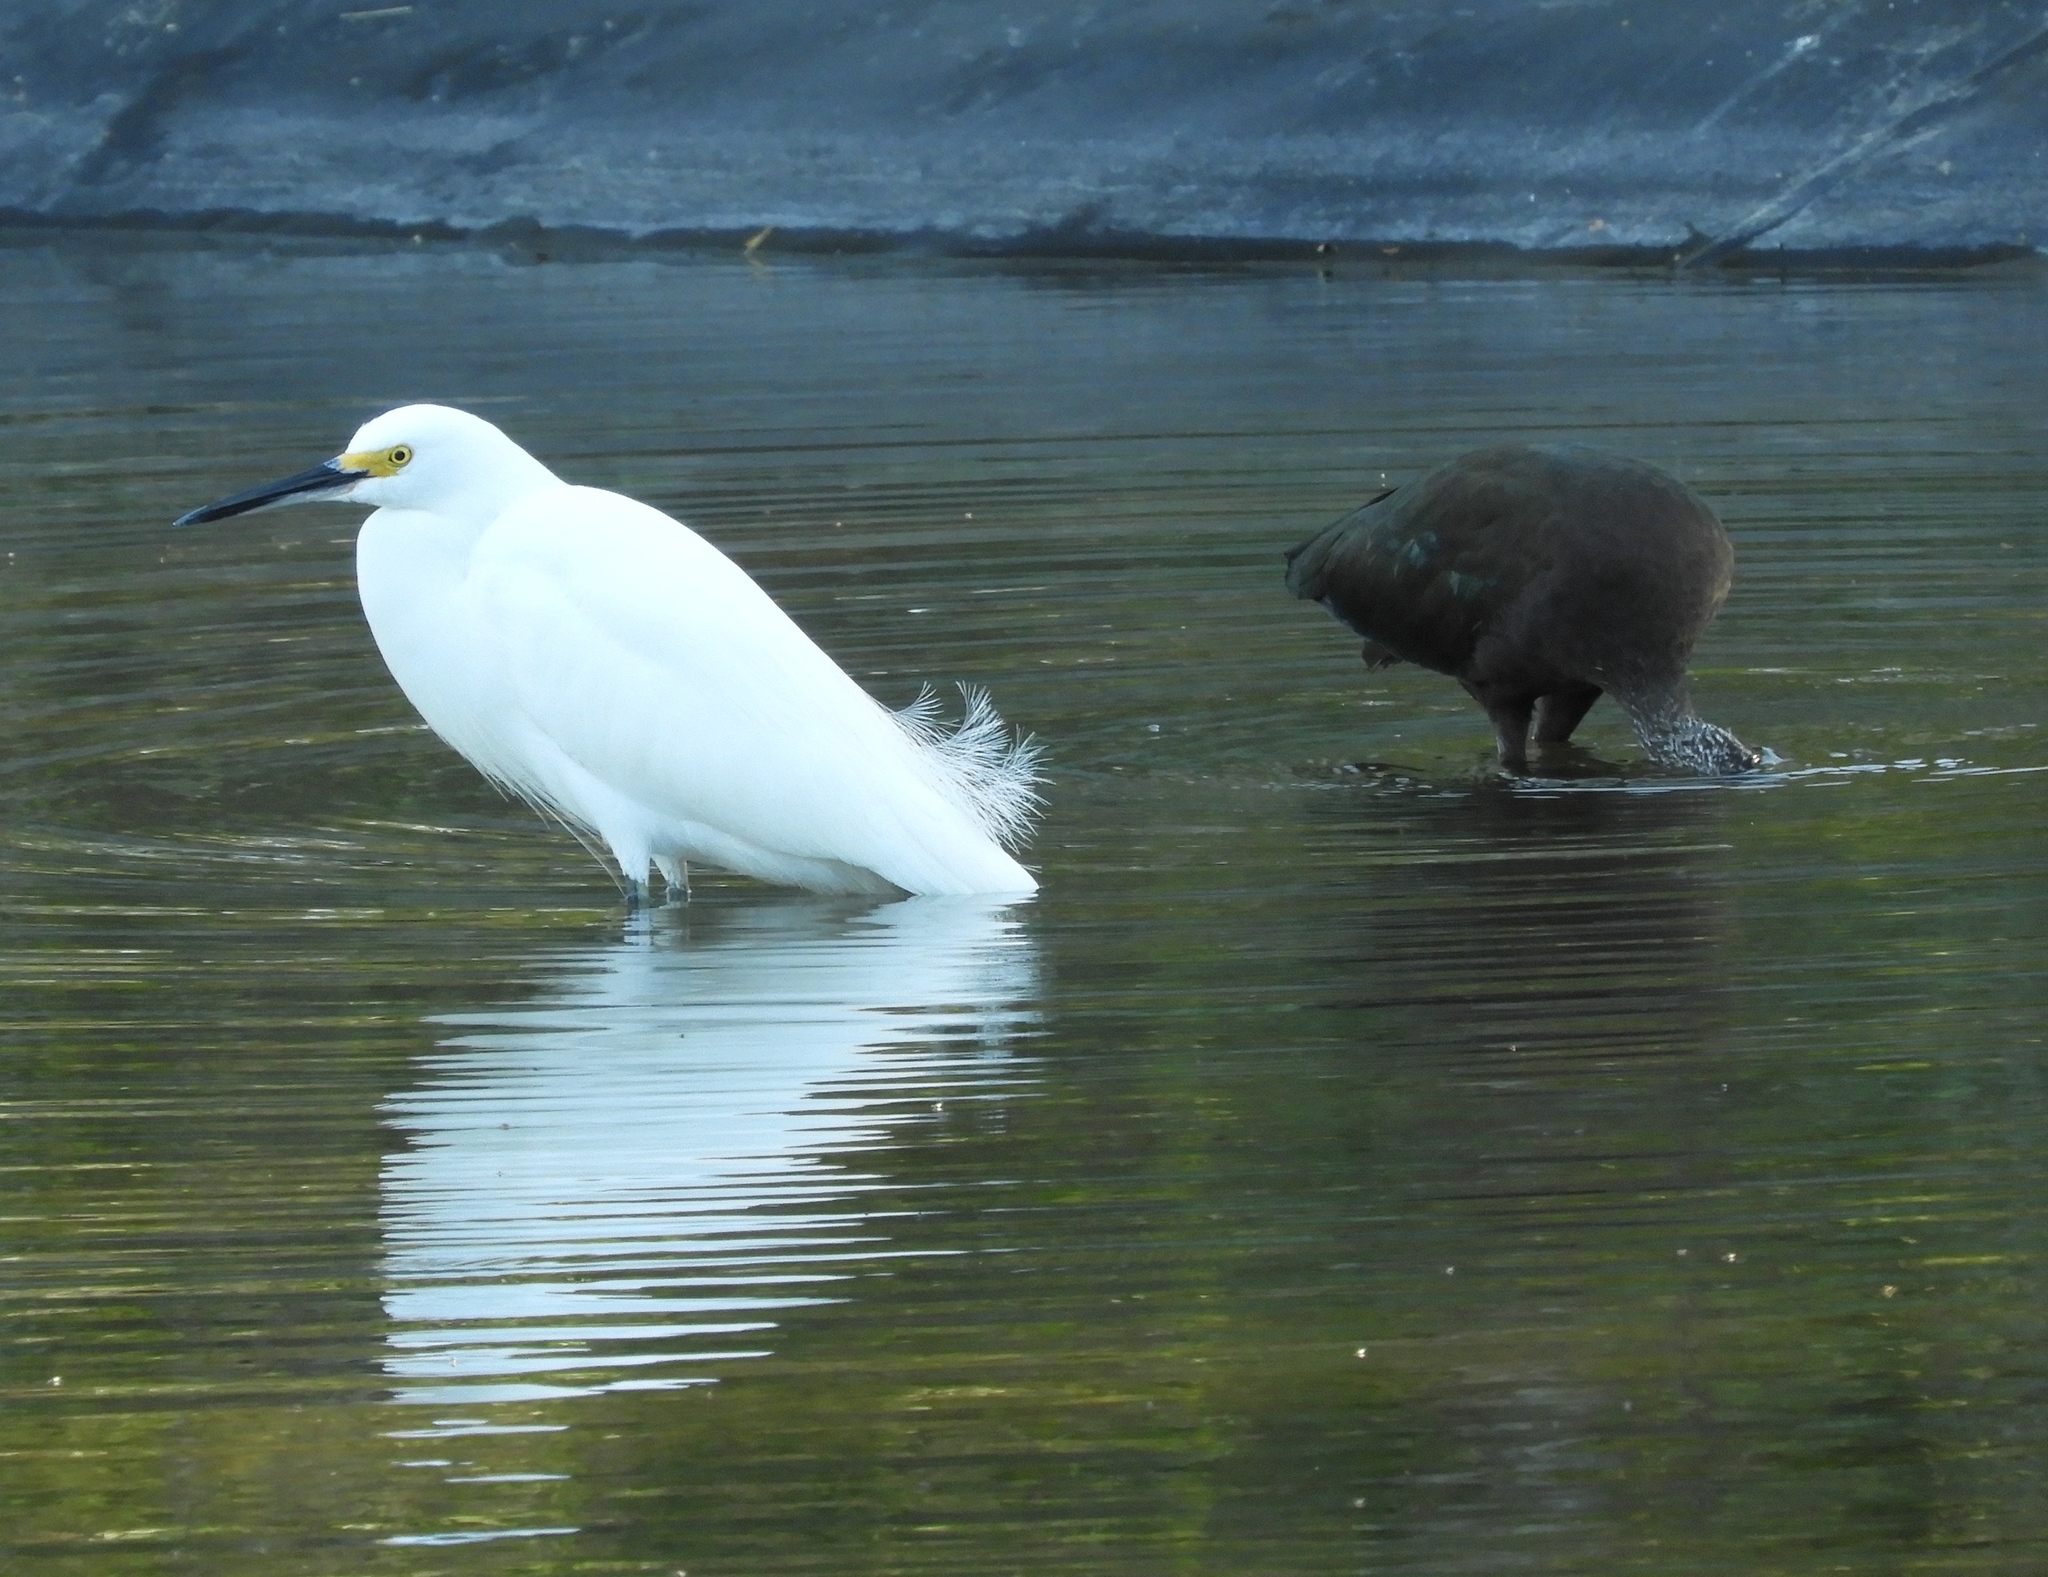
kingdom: Animalia
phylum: Chordata
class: Aves
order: Pelecaniformes
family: Ardeidae
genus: Egretta
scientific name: Egretta thula
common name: Snowy egret
